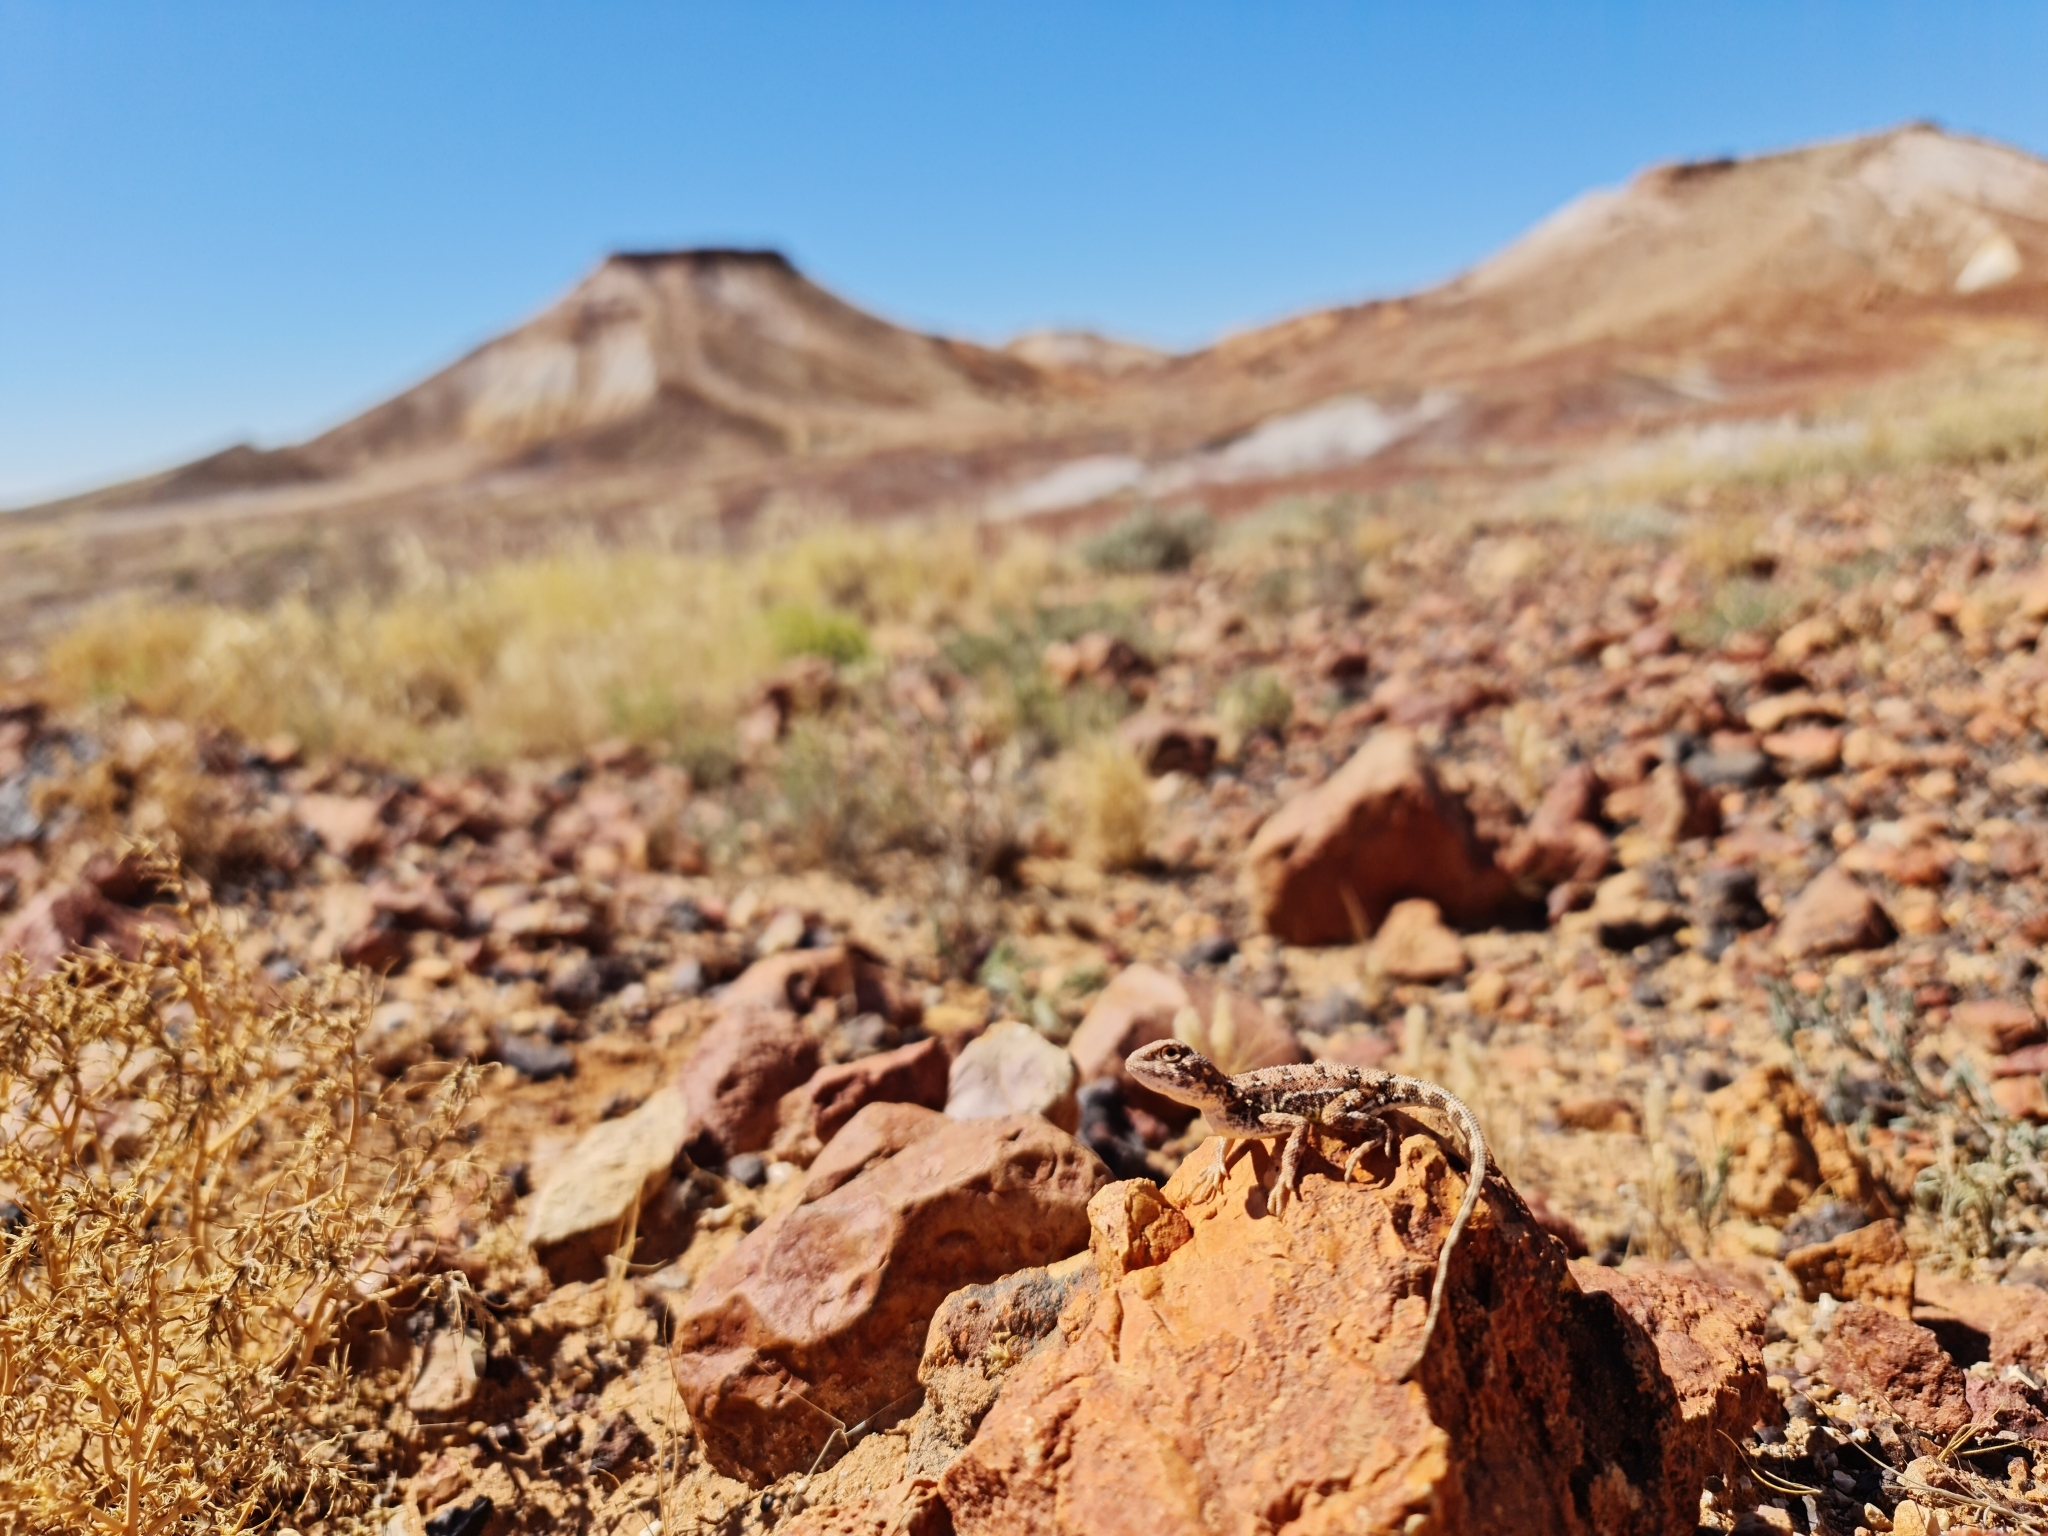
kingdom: Animalia
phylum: Chordata
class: Squamata
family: Agamidae
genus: Tympanocryptis
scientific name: Tympanocryptis tetraporophora
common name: Eyrean earless dragon
